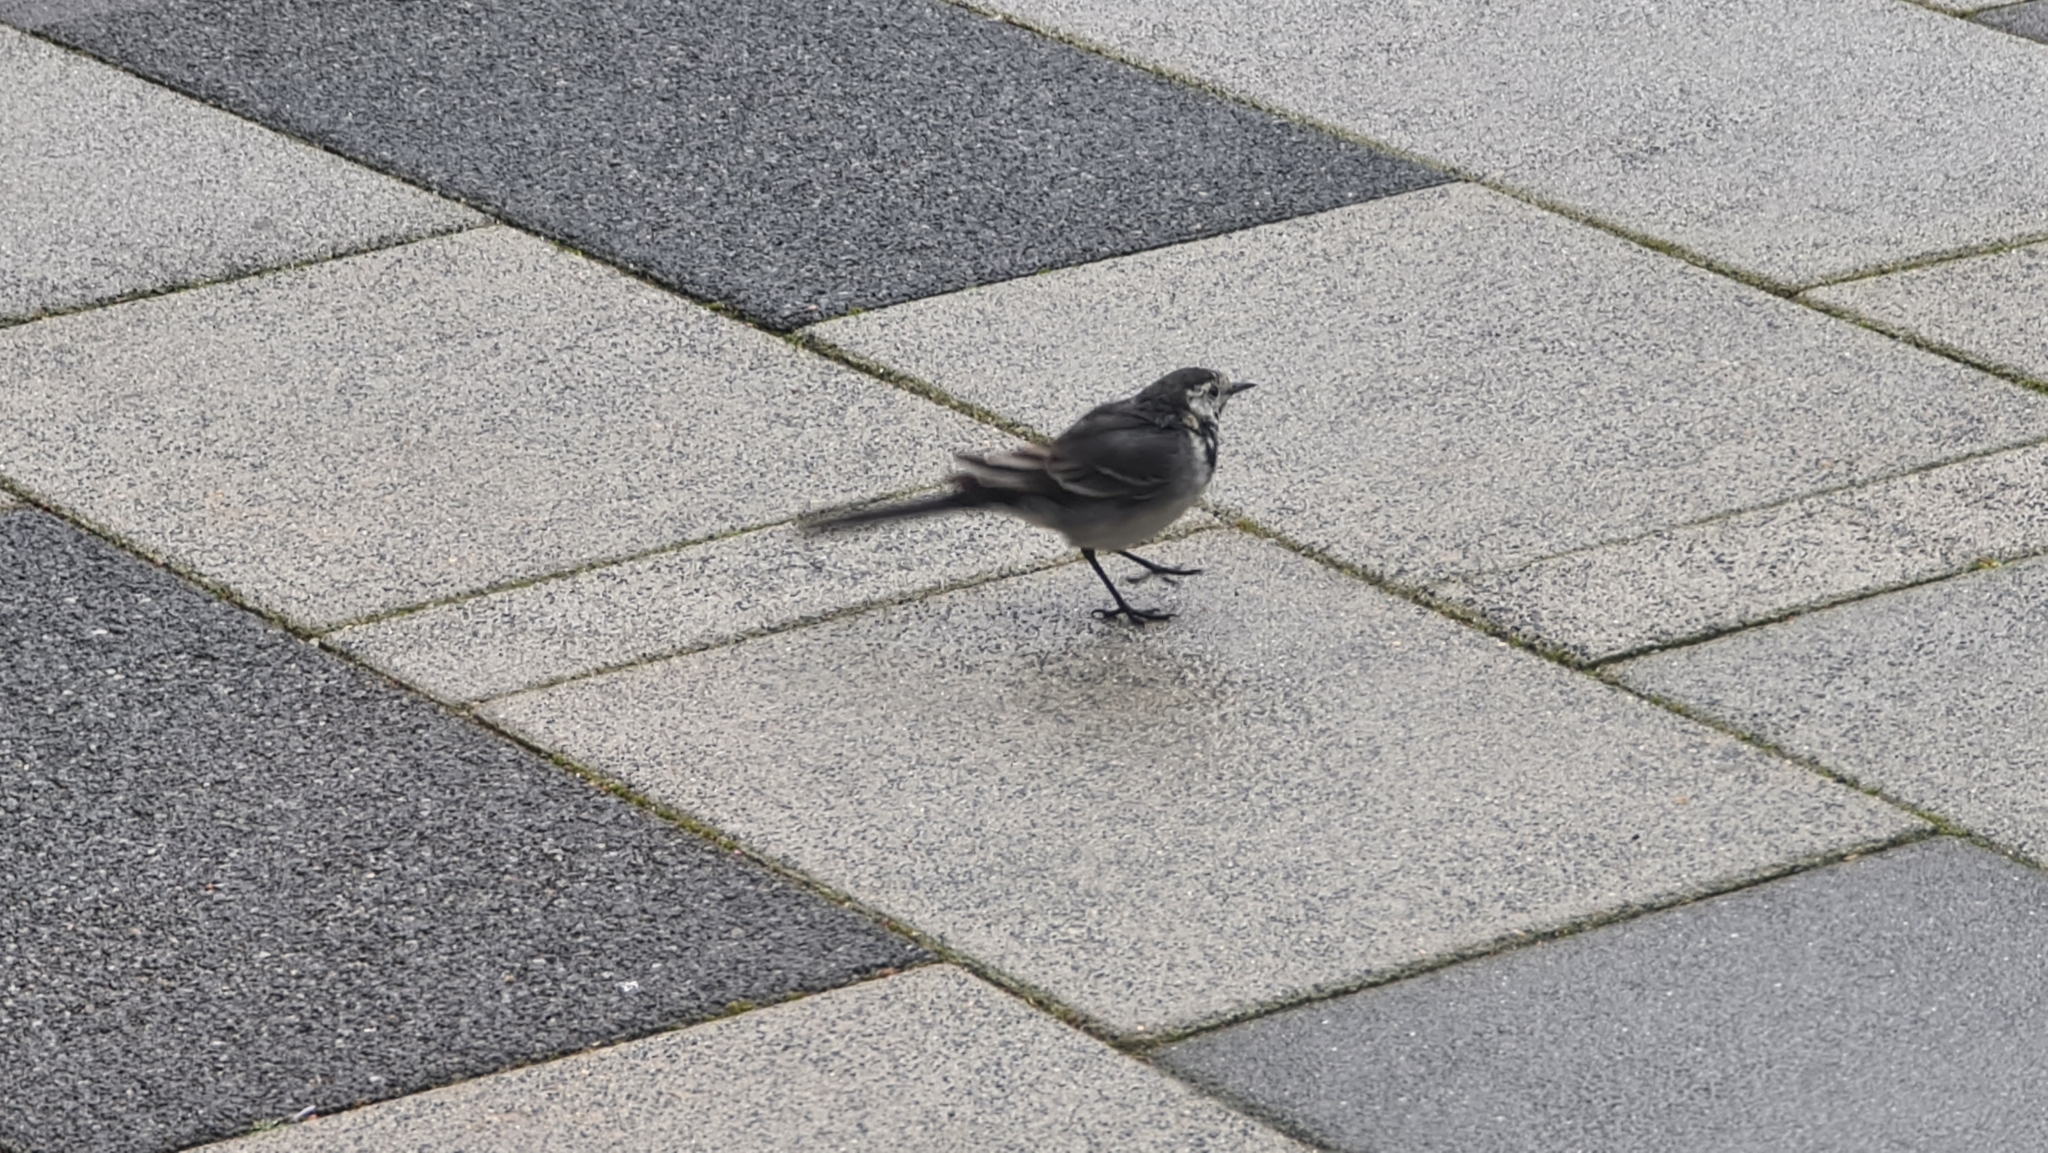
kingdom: Animalia
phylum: Chordata
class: Aves
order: Passeriformes
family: Motacillidae
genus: Motacilla
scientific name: Motacilla alba
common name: White wagtail
